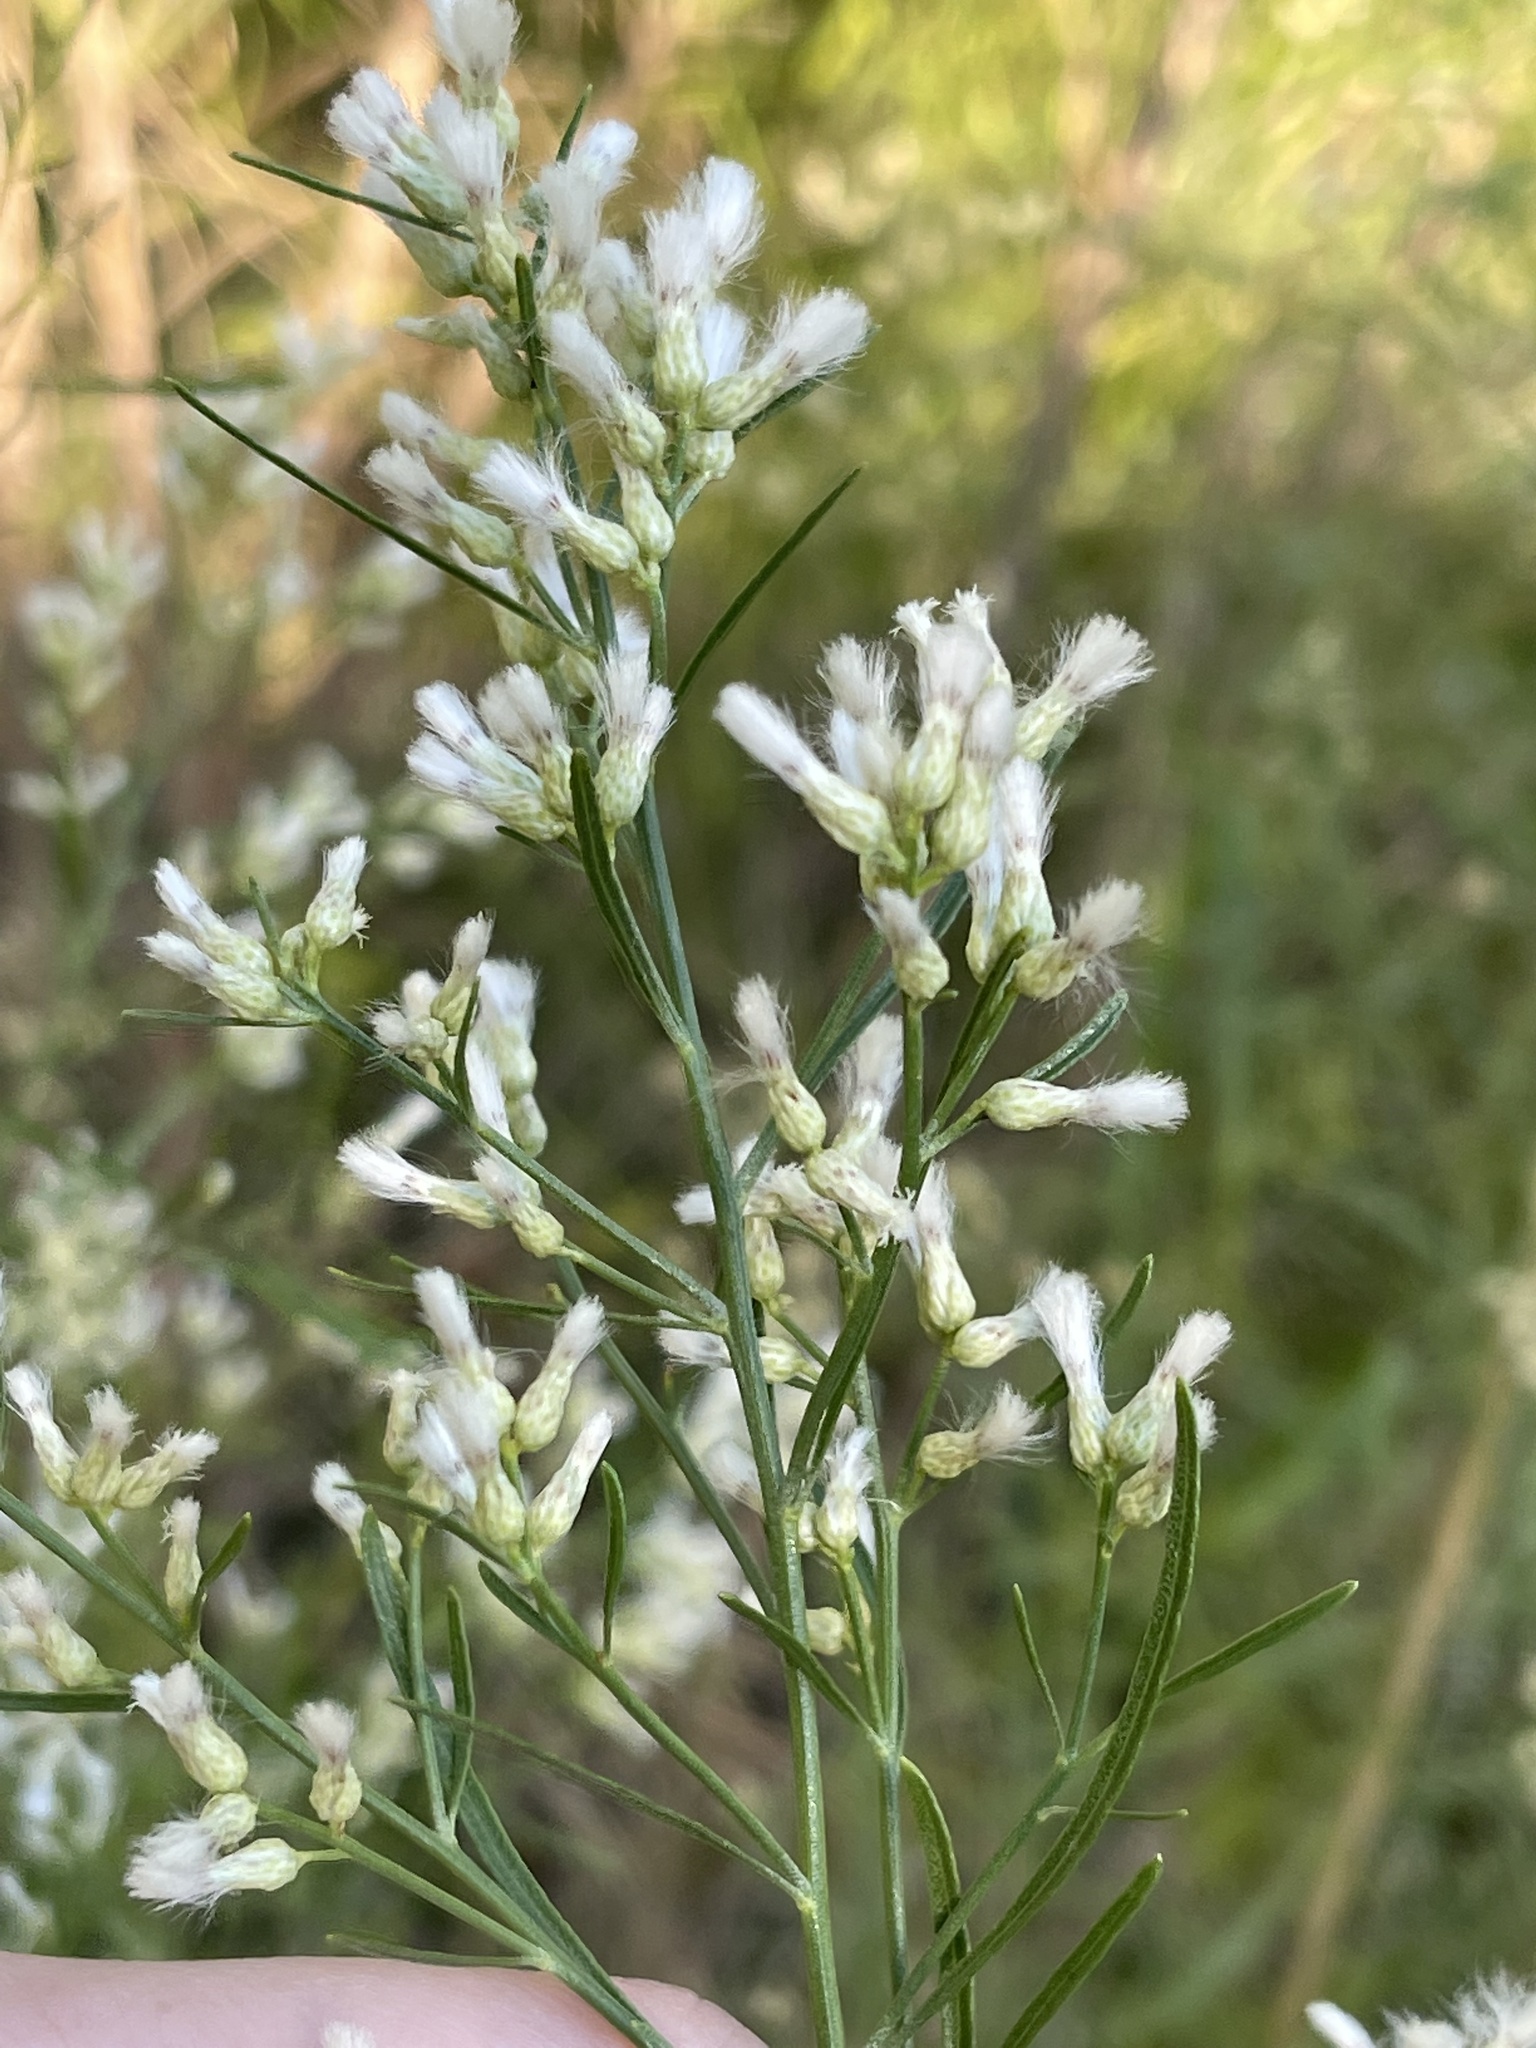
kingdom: Plantae
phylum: Tracheophyta
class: Magnoliopsida
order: Asterales
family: Asteraceae
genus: Baccharis
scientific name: Baccharis neglecta
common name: Roosevelt-weed
